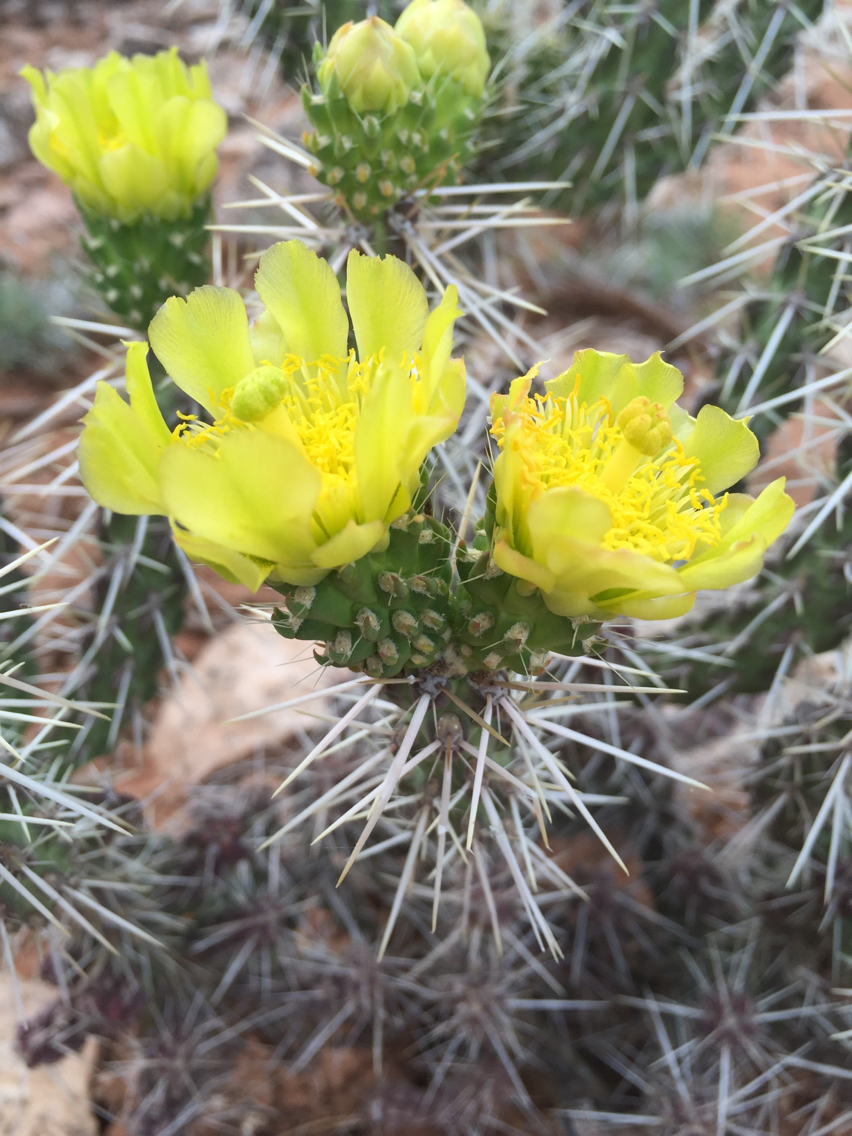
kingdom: Plantae
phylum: Tracheophyta
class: Magnoliopsida
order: Caryophyllales
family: Cactaceae
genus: Cylindropuntia
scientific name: Cylindropuntia whipplei
